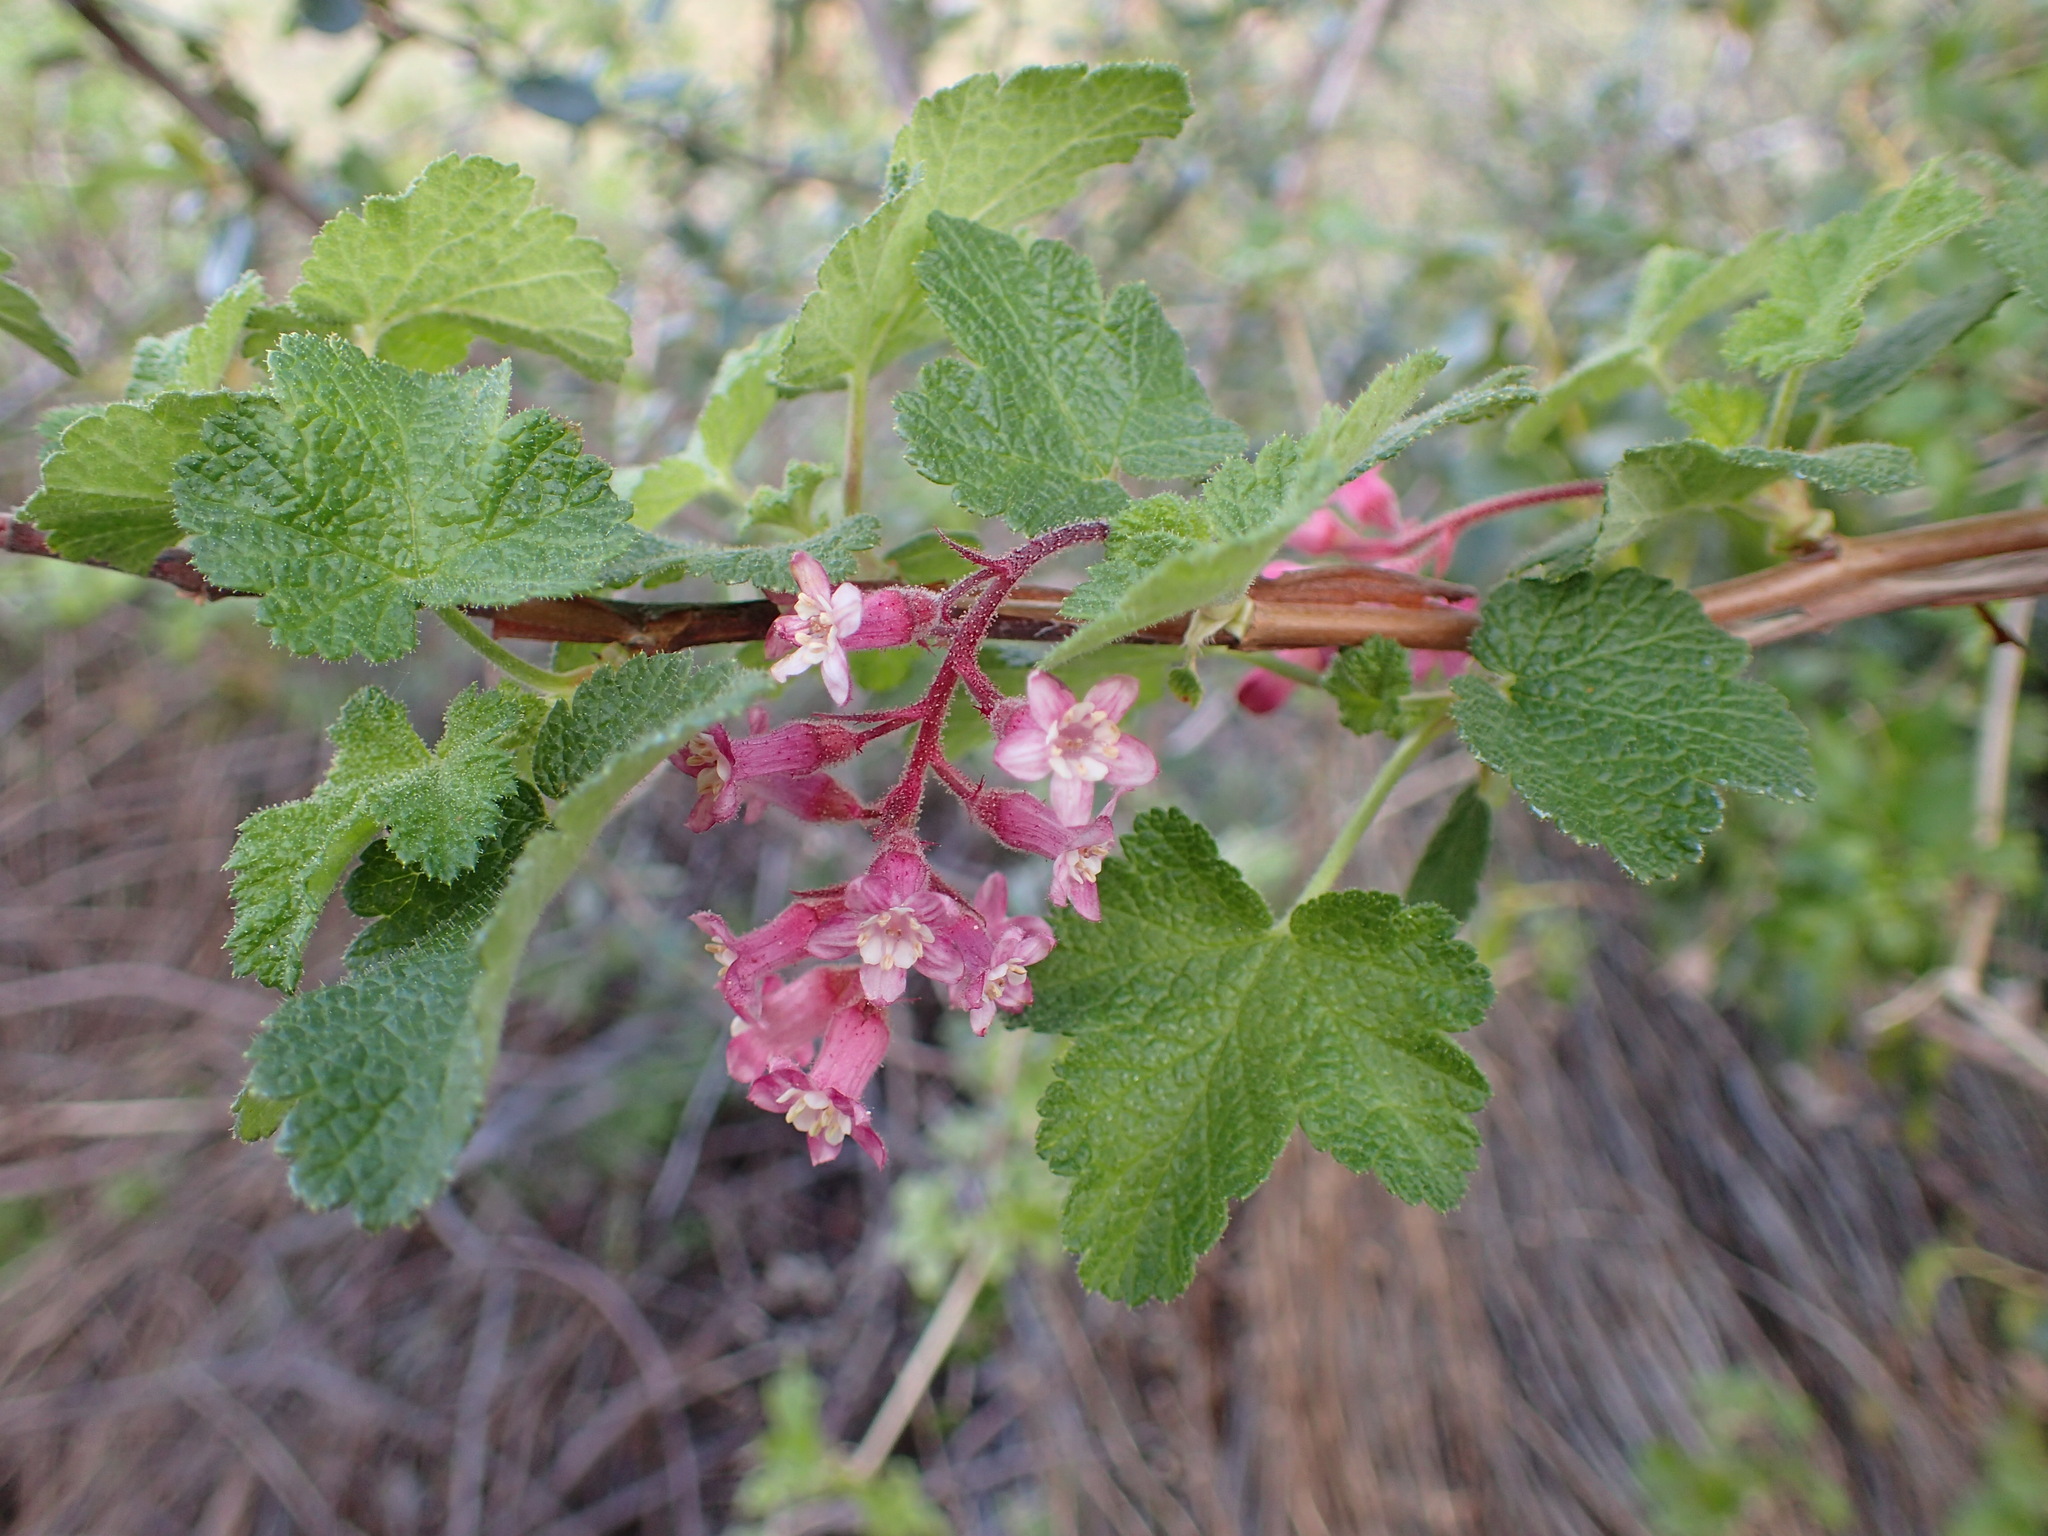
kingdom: Plantae
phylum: Tracheophyta
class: Magnoliopsida
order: Saxifragales
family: Grossulariaceae
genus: Ribes
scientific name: Ribes malvaceum
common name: Chaparral currant
